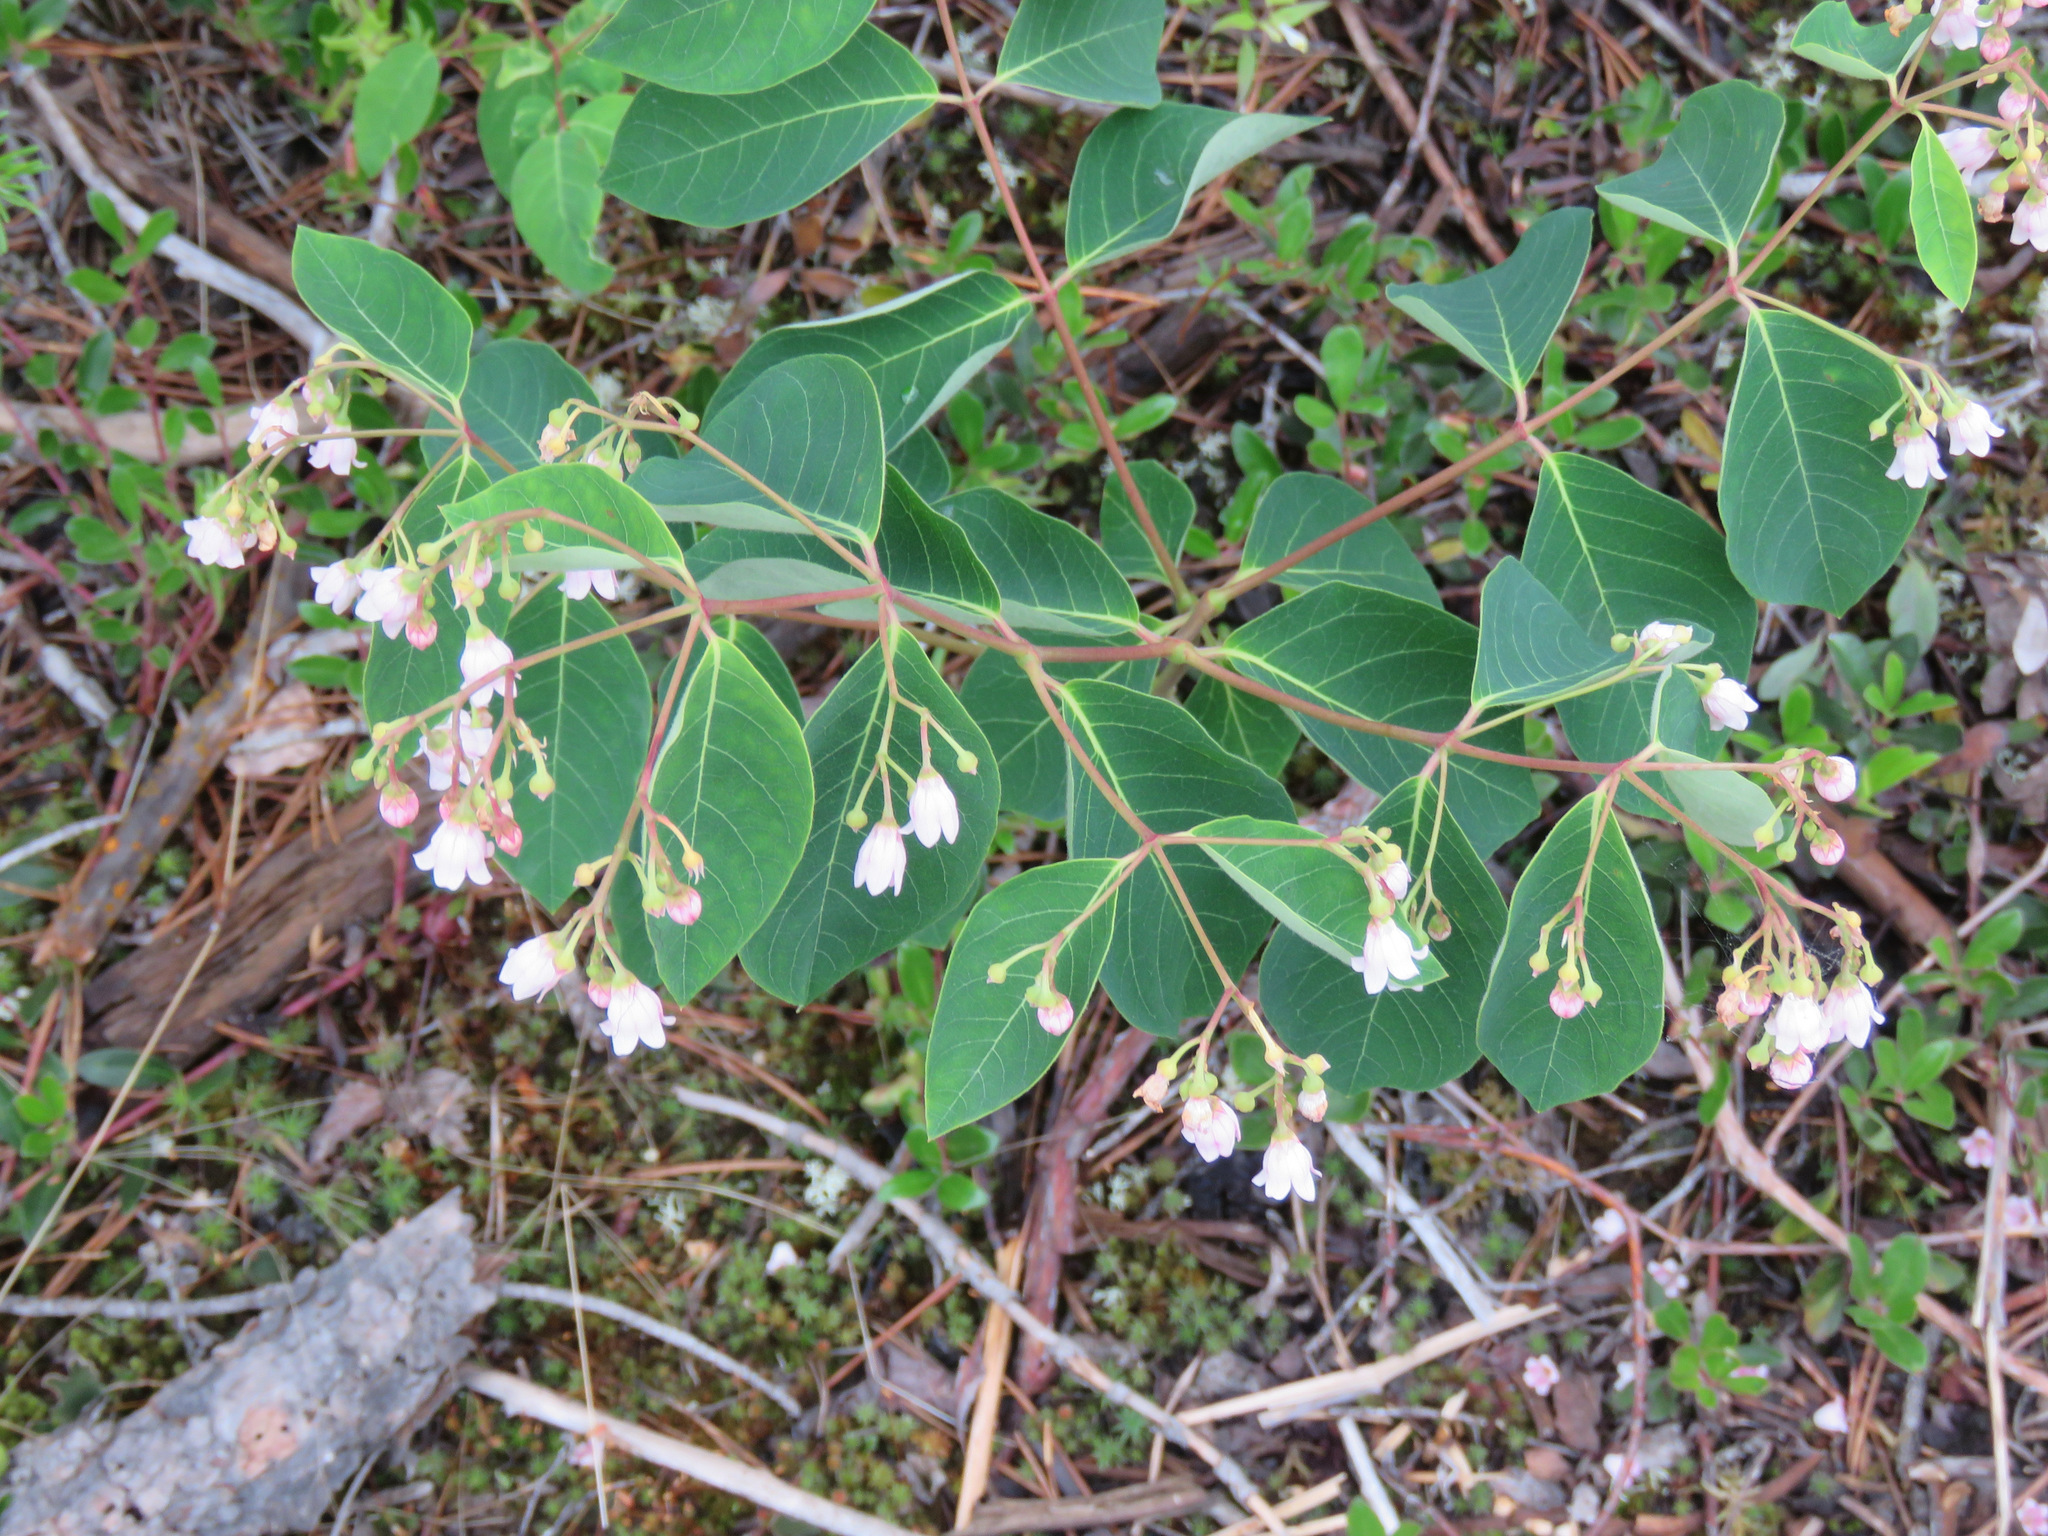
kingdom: Plantae
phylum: Tracheophyta
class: Magnoliopsida
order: Gentianales
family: Apocynaceae
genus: Apocynum
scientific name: Apocynum androsaemifolium
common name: Spreading dogbane
